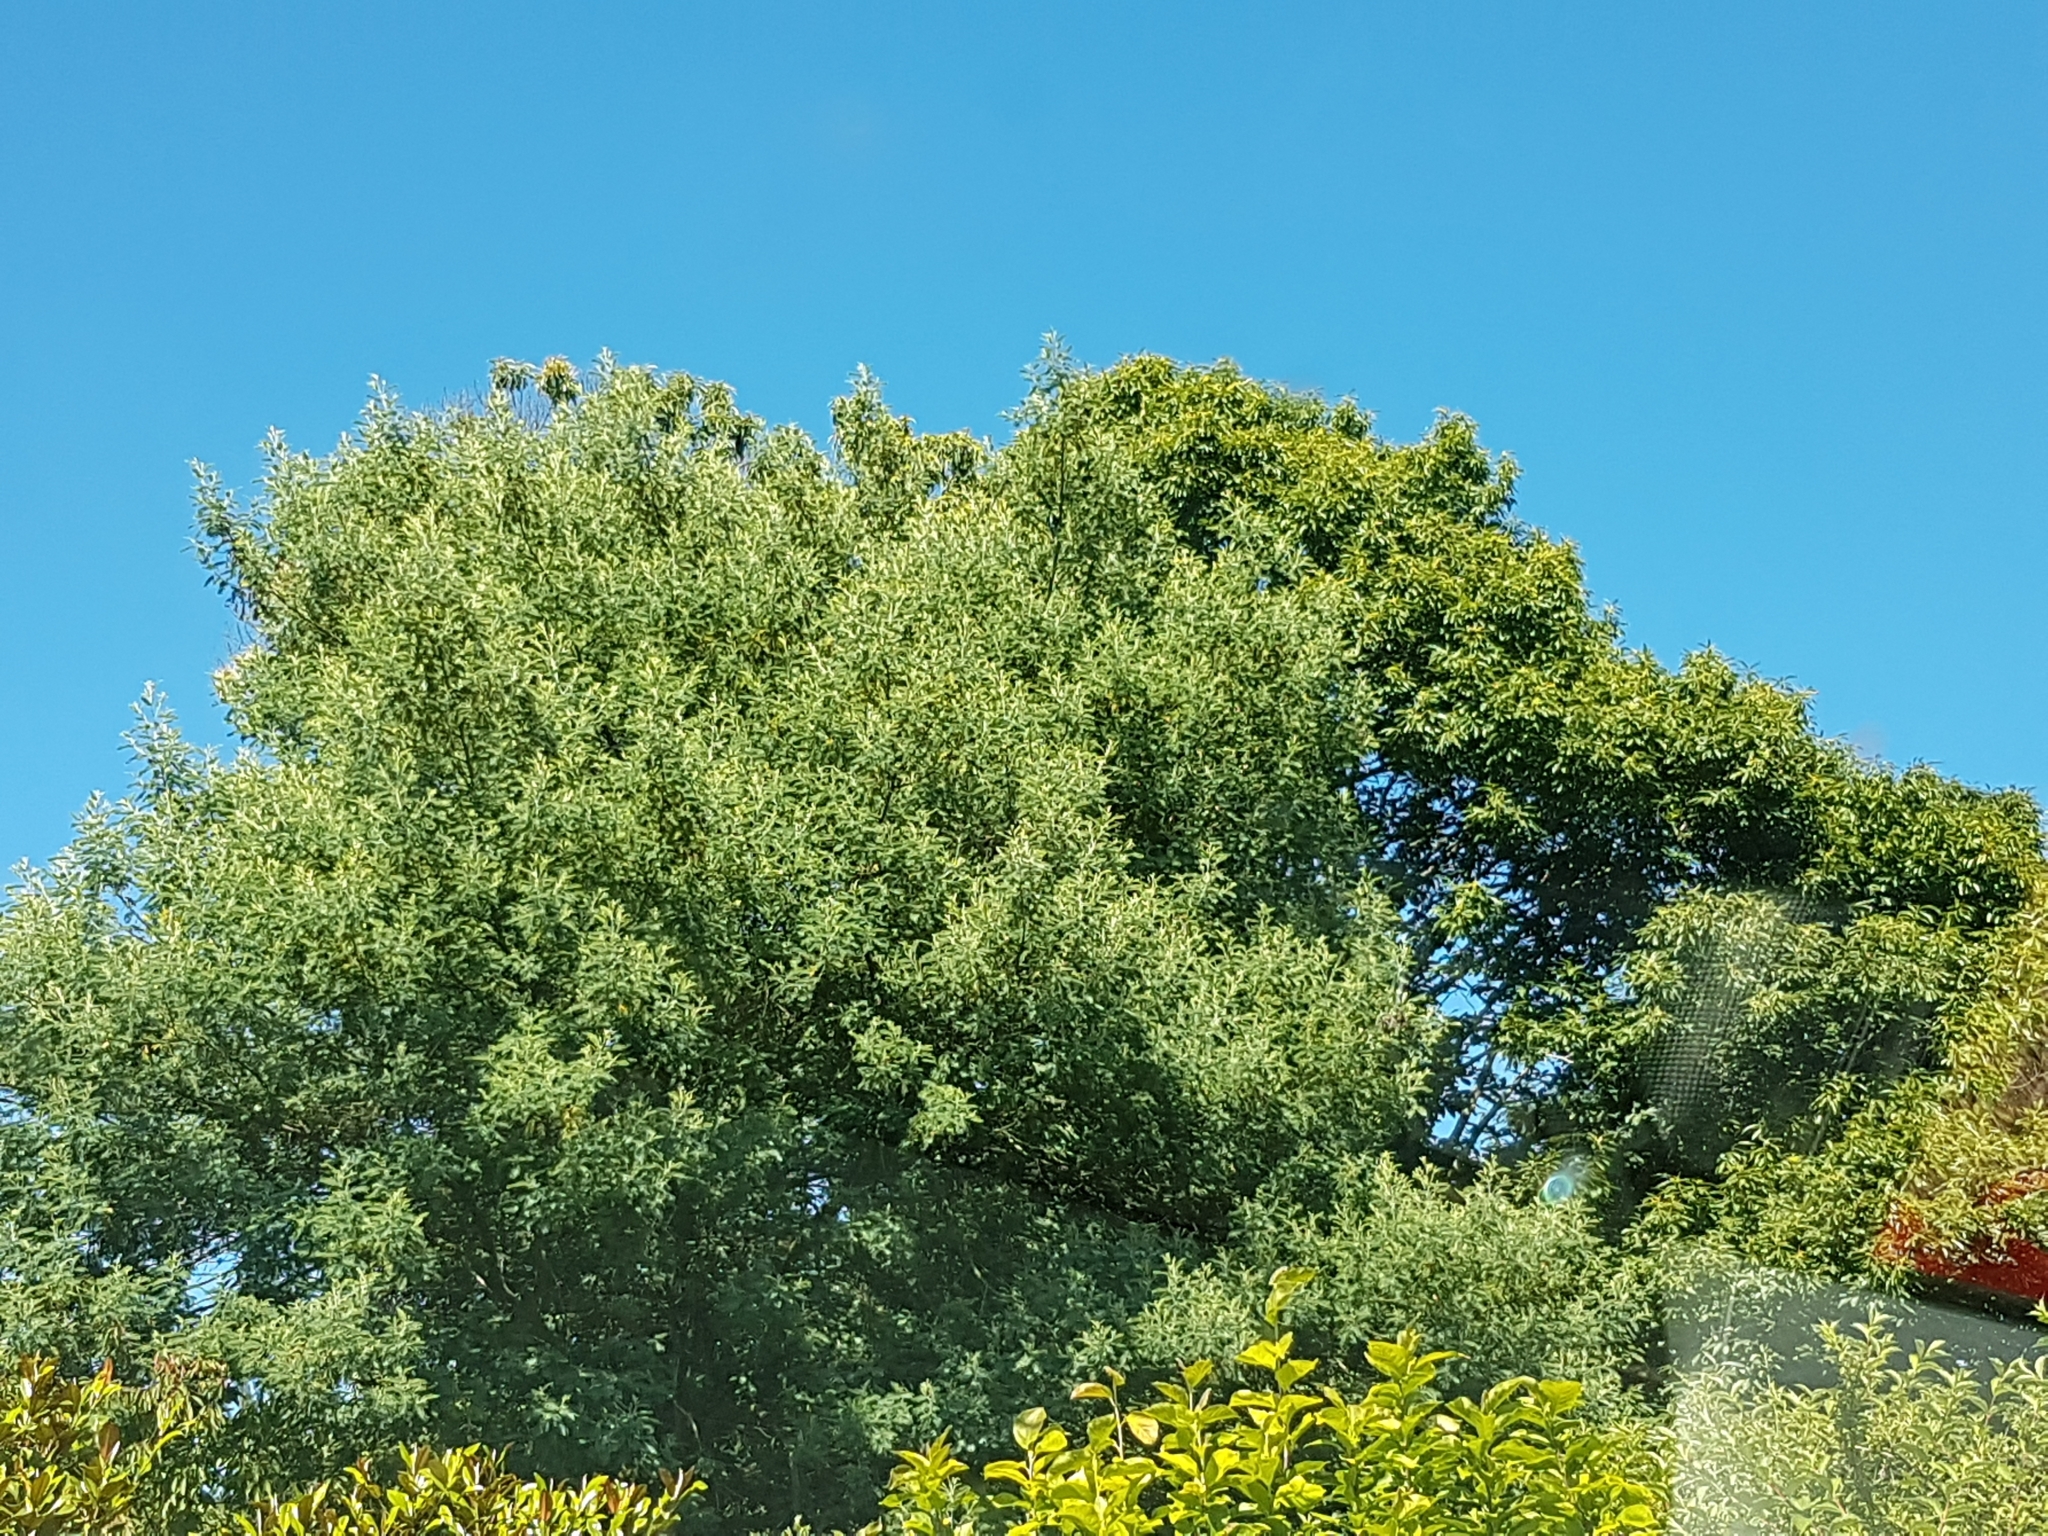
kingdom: Plantae
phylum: Tracheophyta
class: Magnoliopsida
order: Fabales
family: Fabaceae
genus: Acacia
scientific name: Acacia dealbata
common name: Silver wattle
